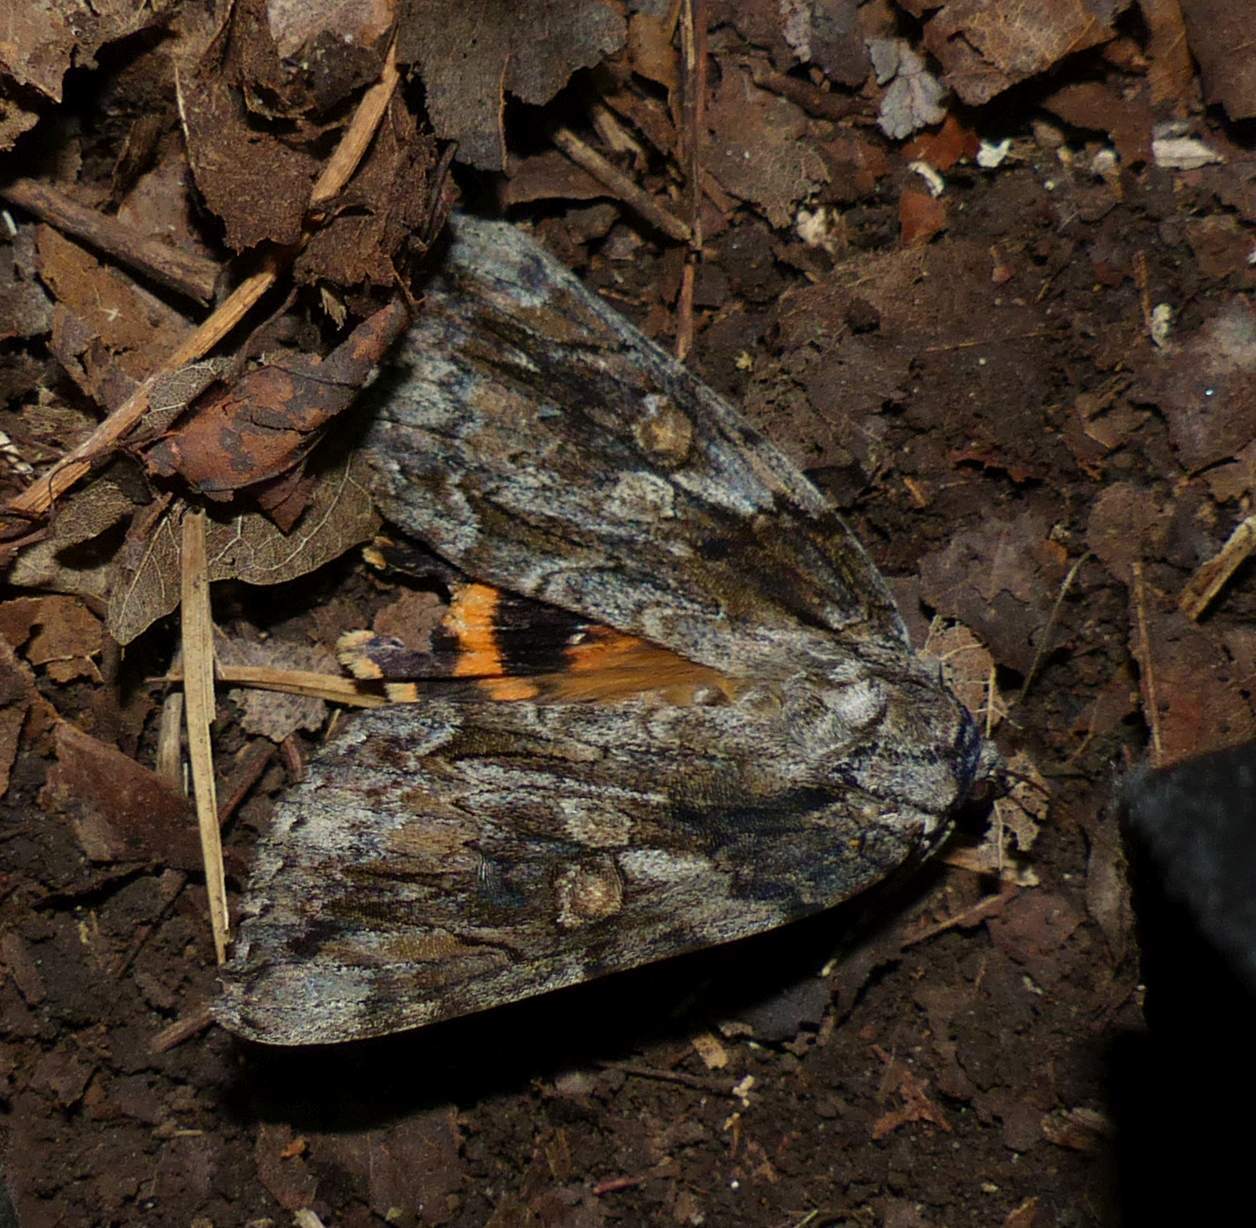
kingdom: Animalia
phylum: Arthropoda
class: Insecta
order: Lepidoptera
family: Erebidae
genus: Catocala
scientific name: Catocala neogama
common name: Bride underwing
